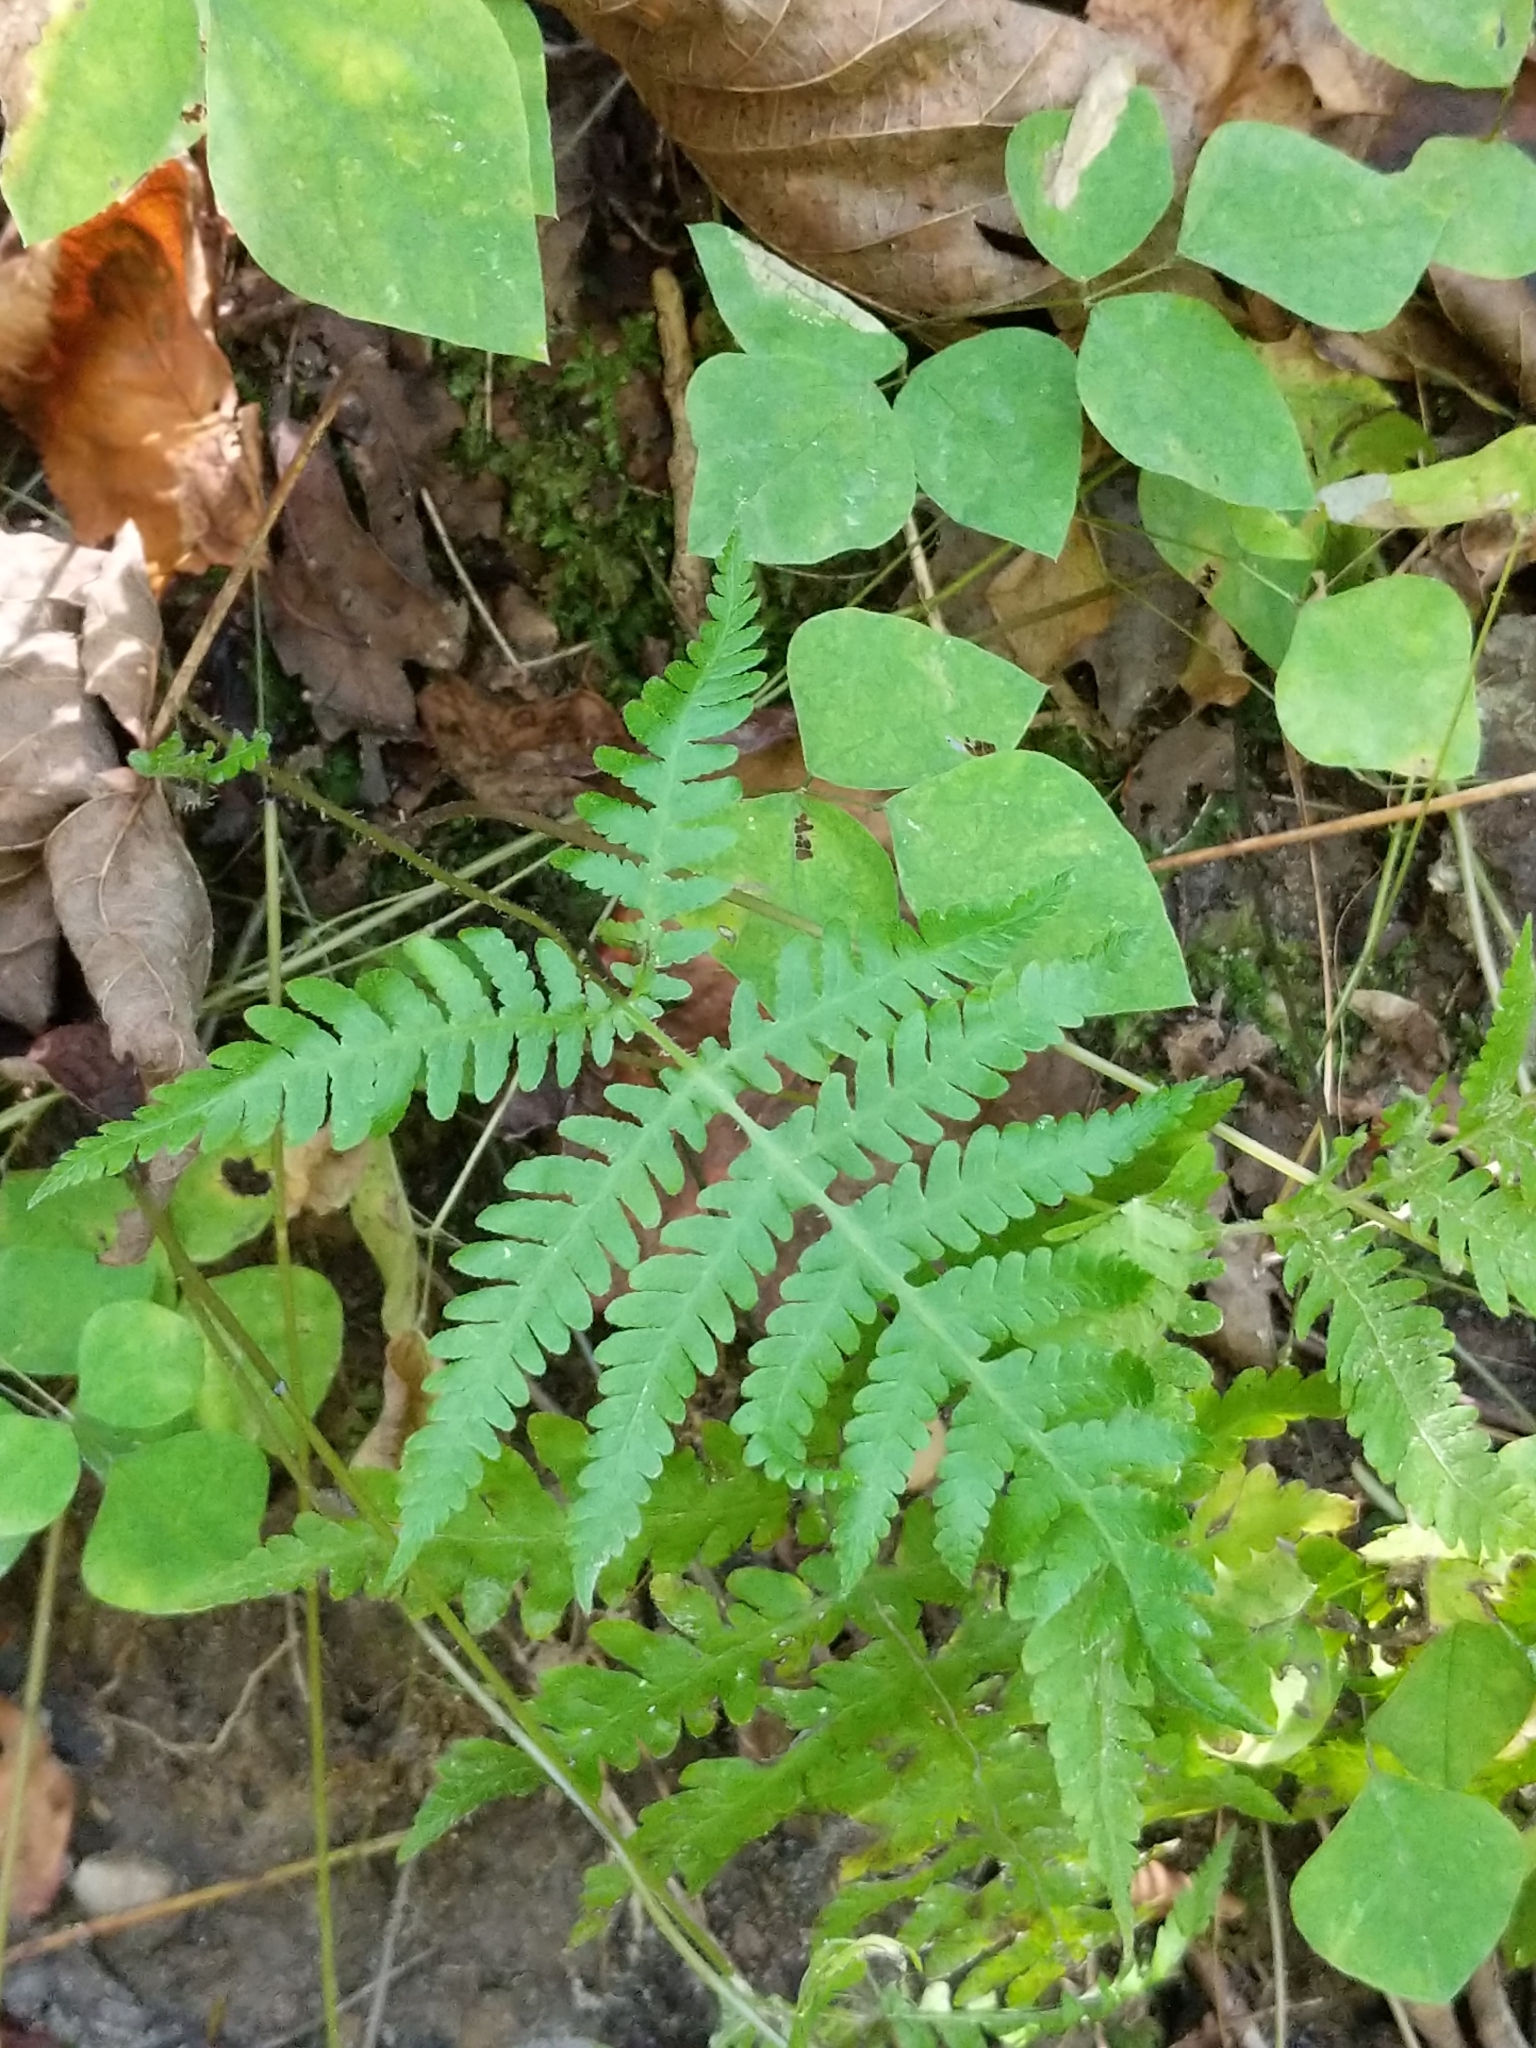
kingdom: Plantae
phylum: Tracheophyta
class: Polypodiopsida
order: Polypodiales
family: Thelypteridaceae
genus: Phegopteris
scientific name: Phegopteris hexagonoptera
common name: Broad beech fern
